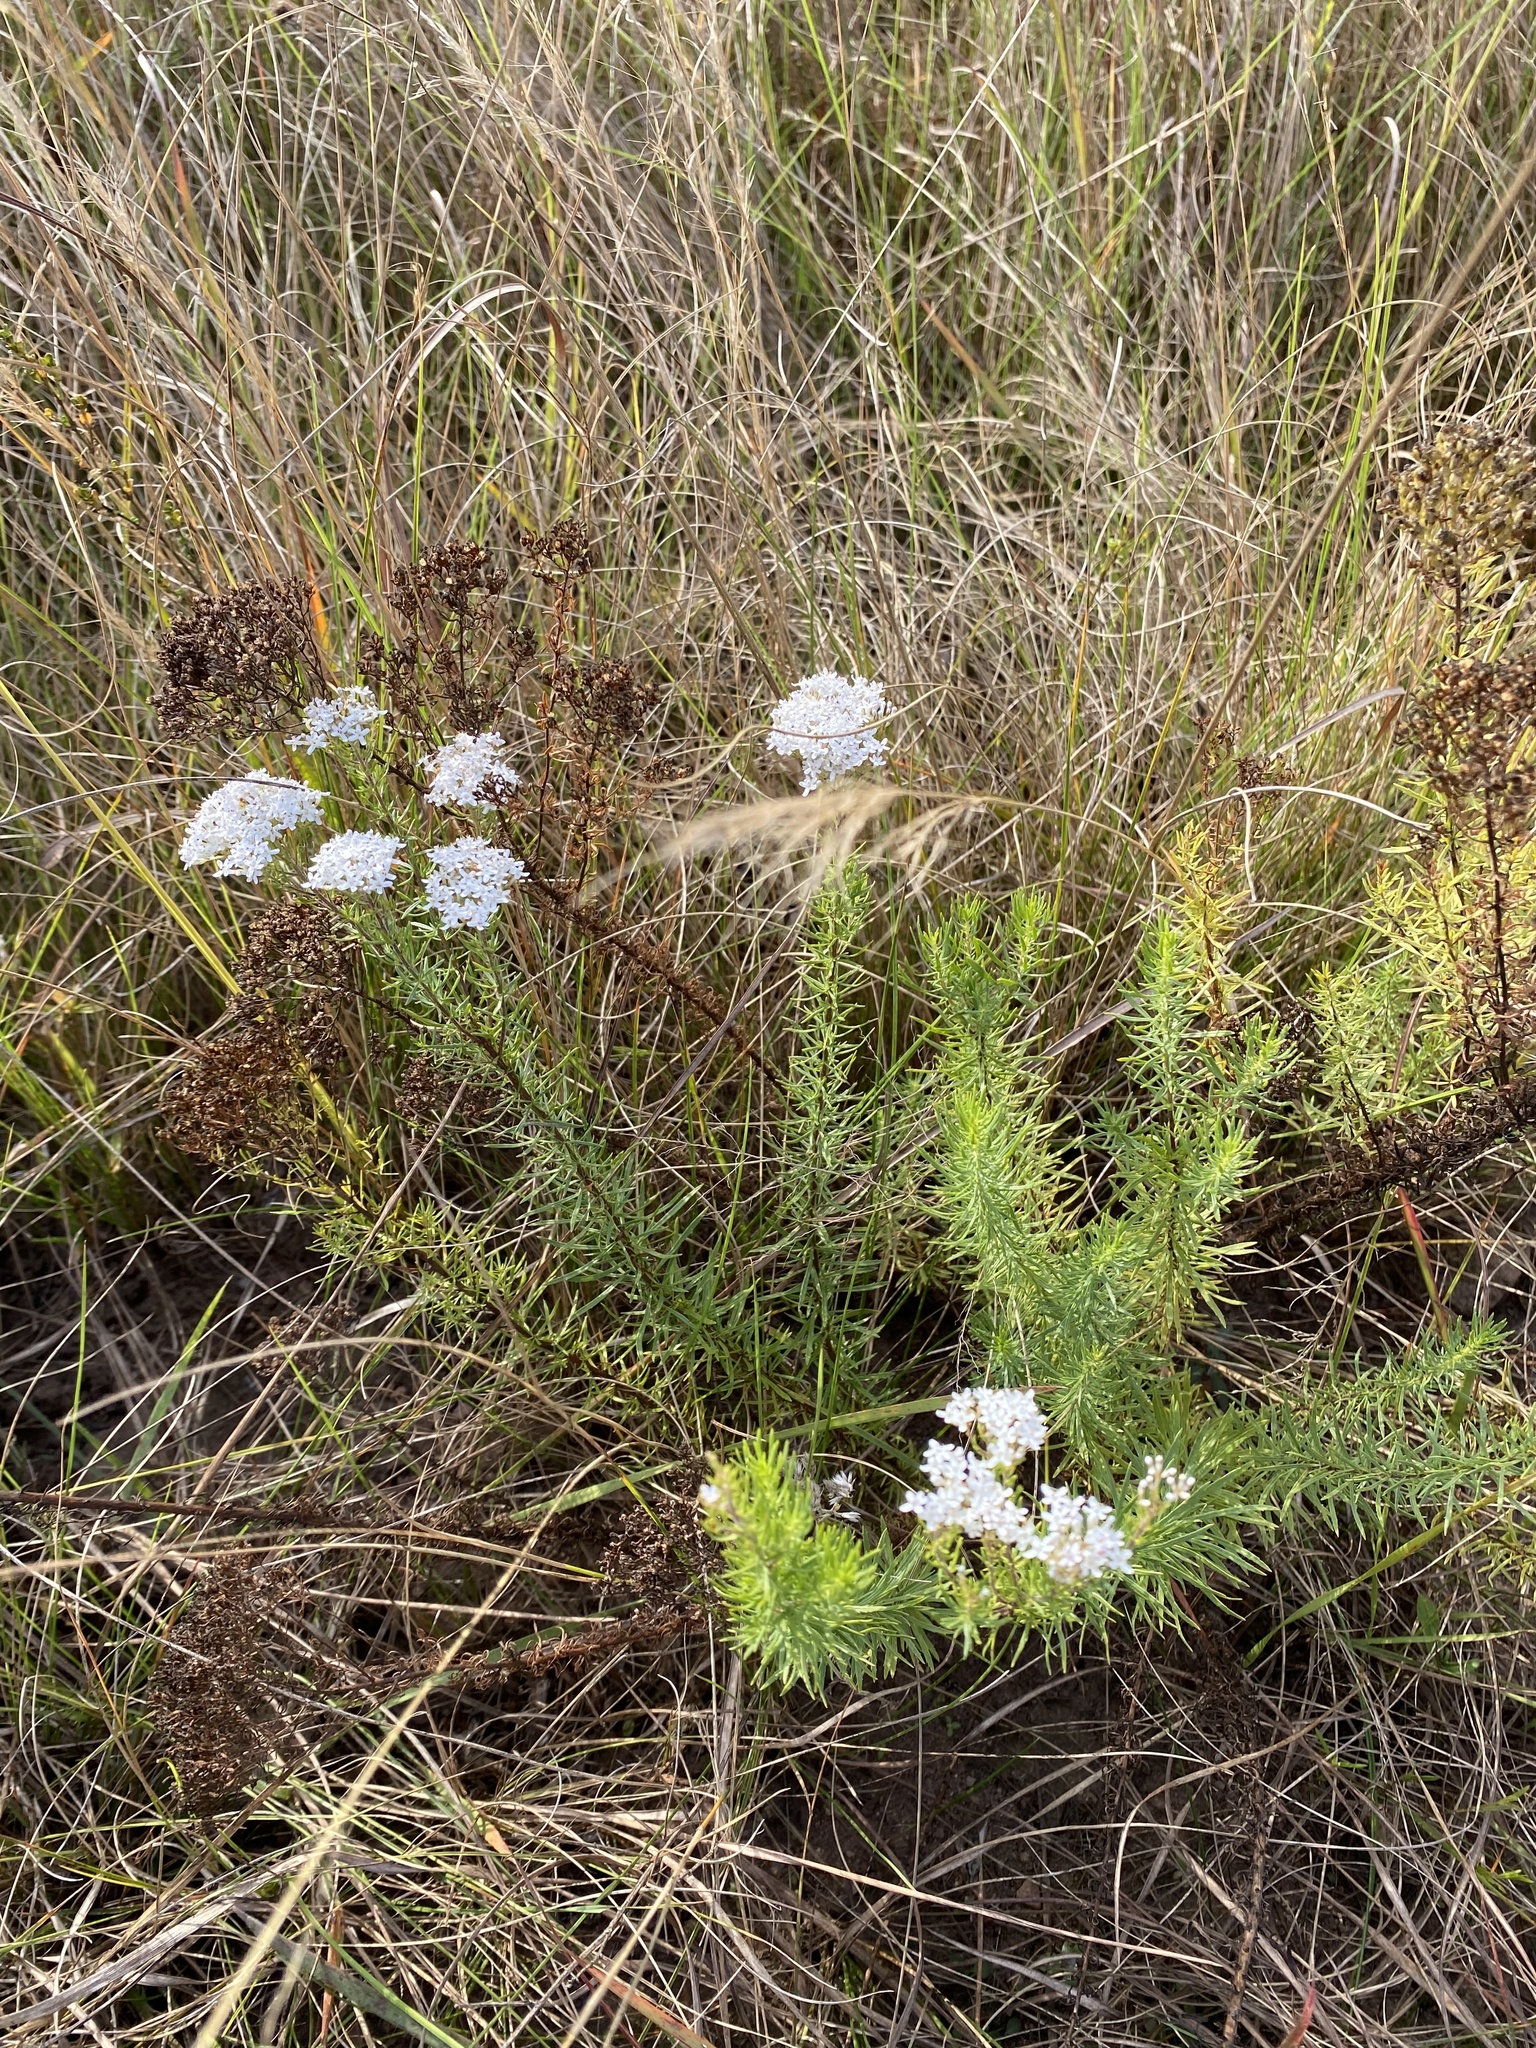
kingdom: Plantae
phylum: Tracheophyta
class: Magnoliopsida
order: Lamiales
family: Scrophulariaceae
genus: Tetraselago
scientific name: Tetraselago natalensis
